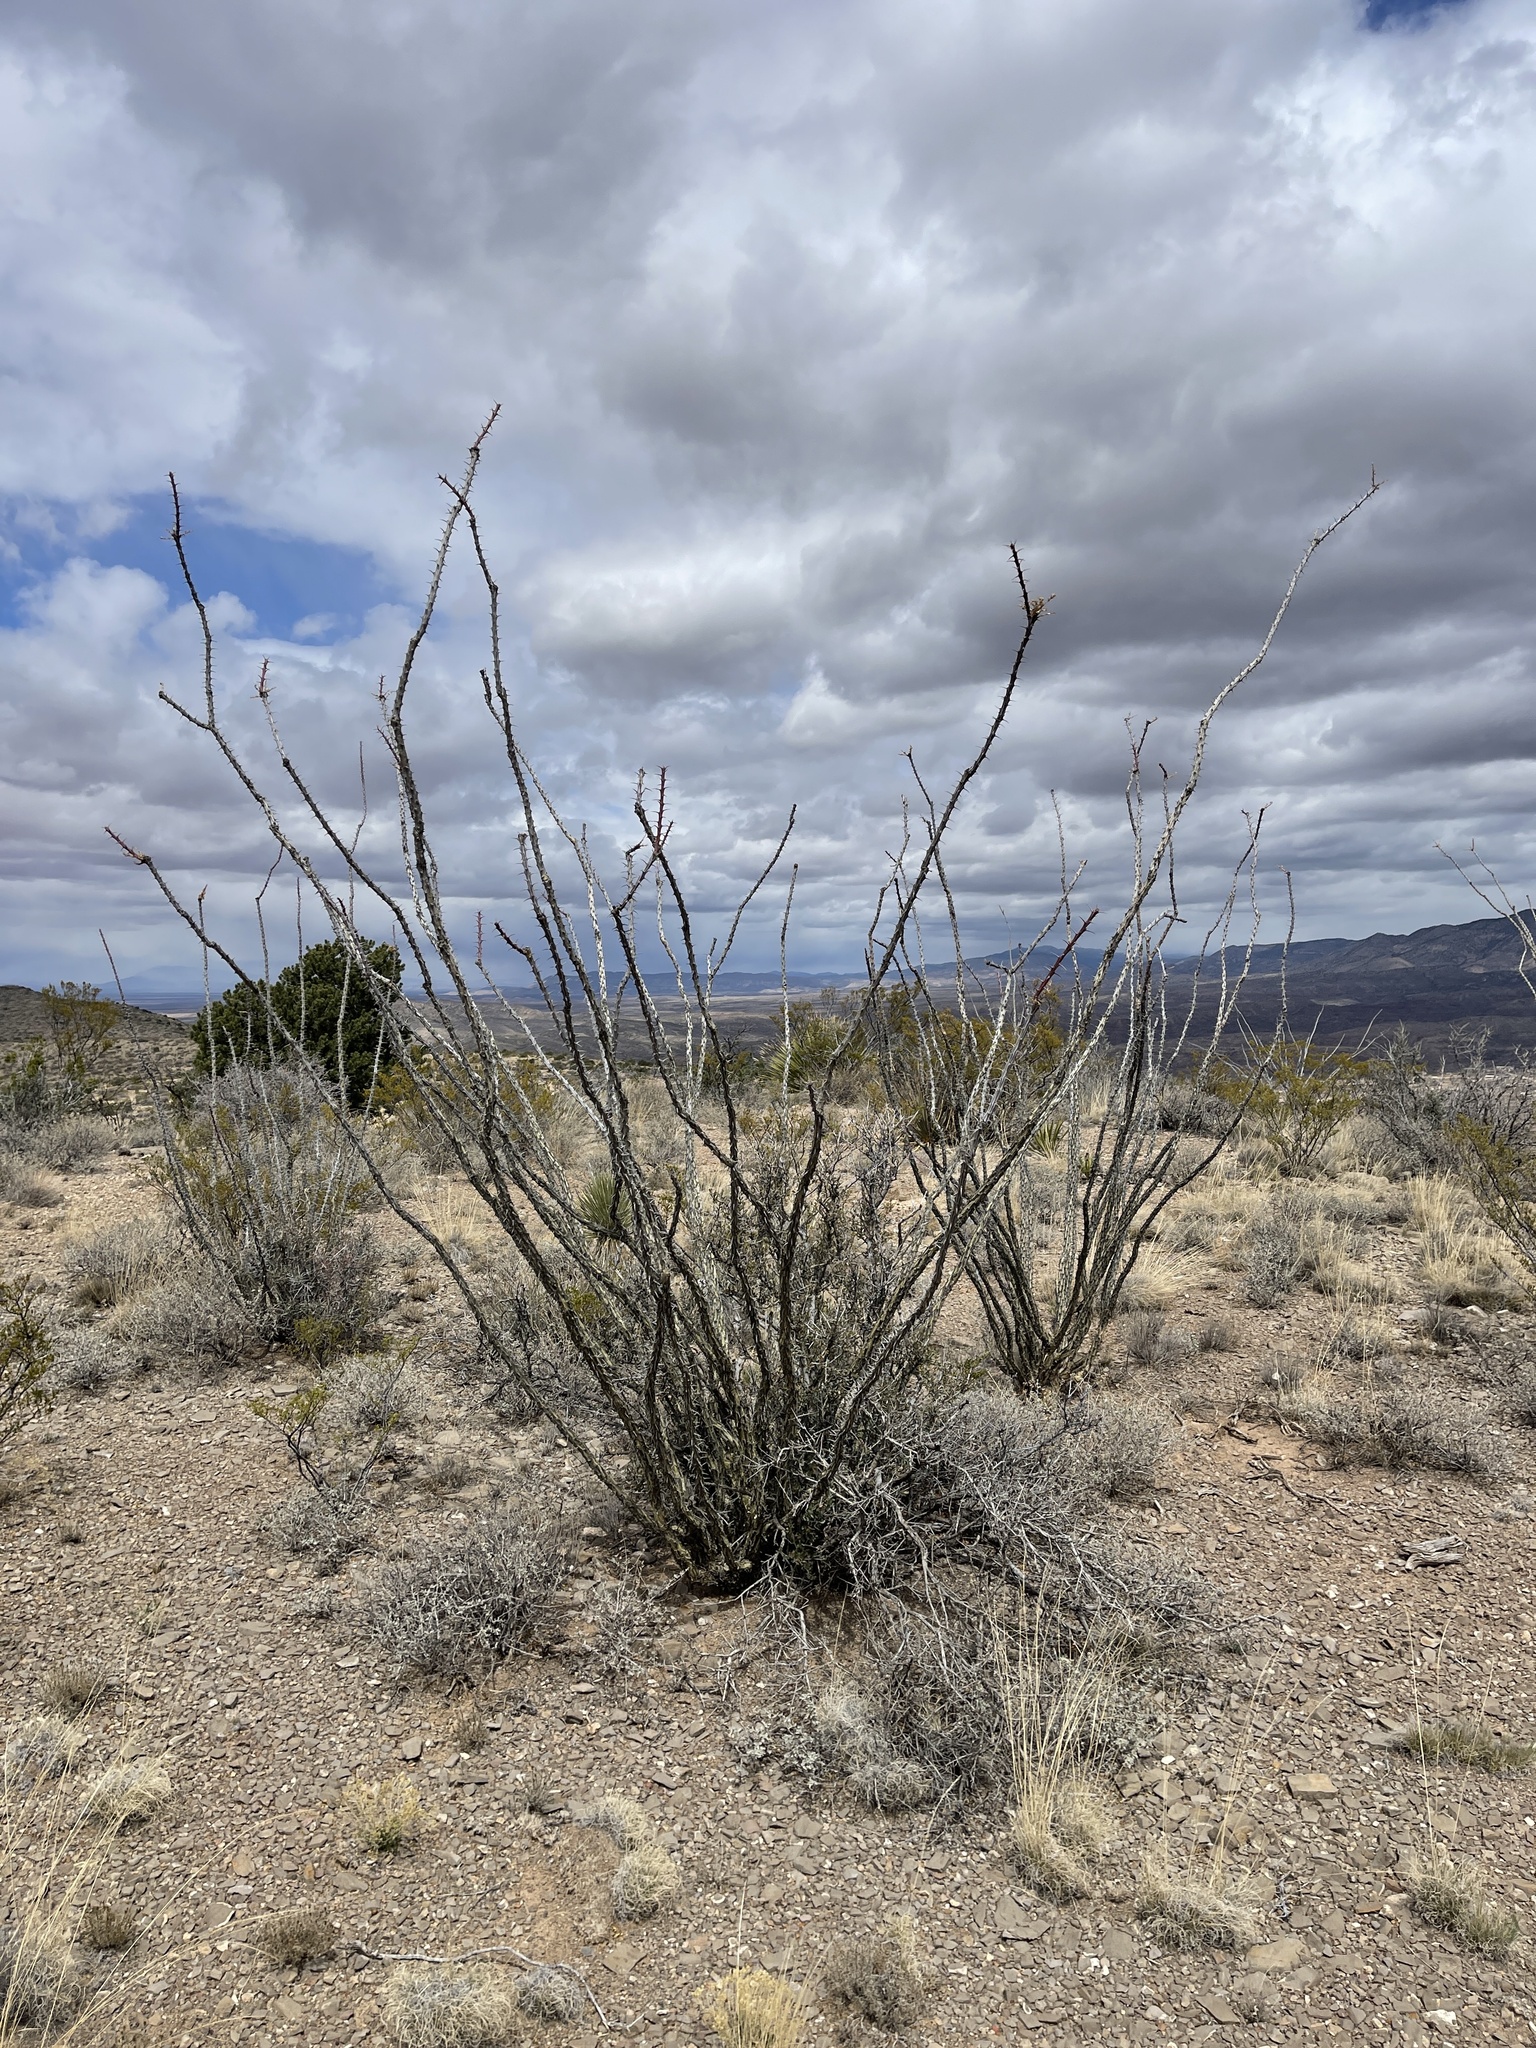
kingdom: Plantae
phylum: Tracheophyta
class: Magnoliopsida
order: Ericales
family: Fouquieriaceae
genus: Fouquieria
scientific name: Fouquieria splendens
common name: Vine-cactus
